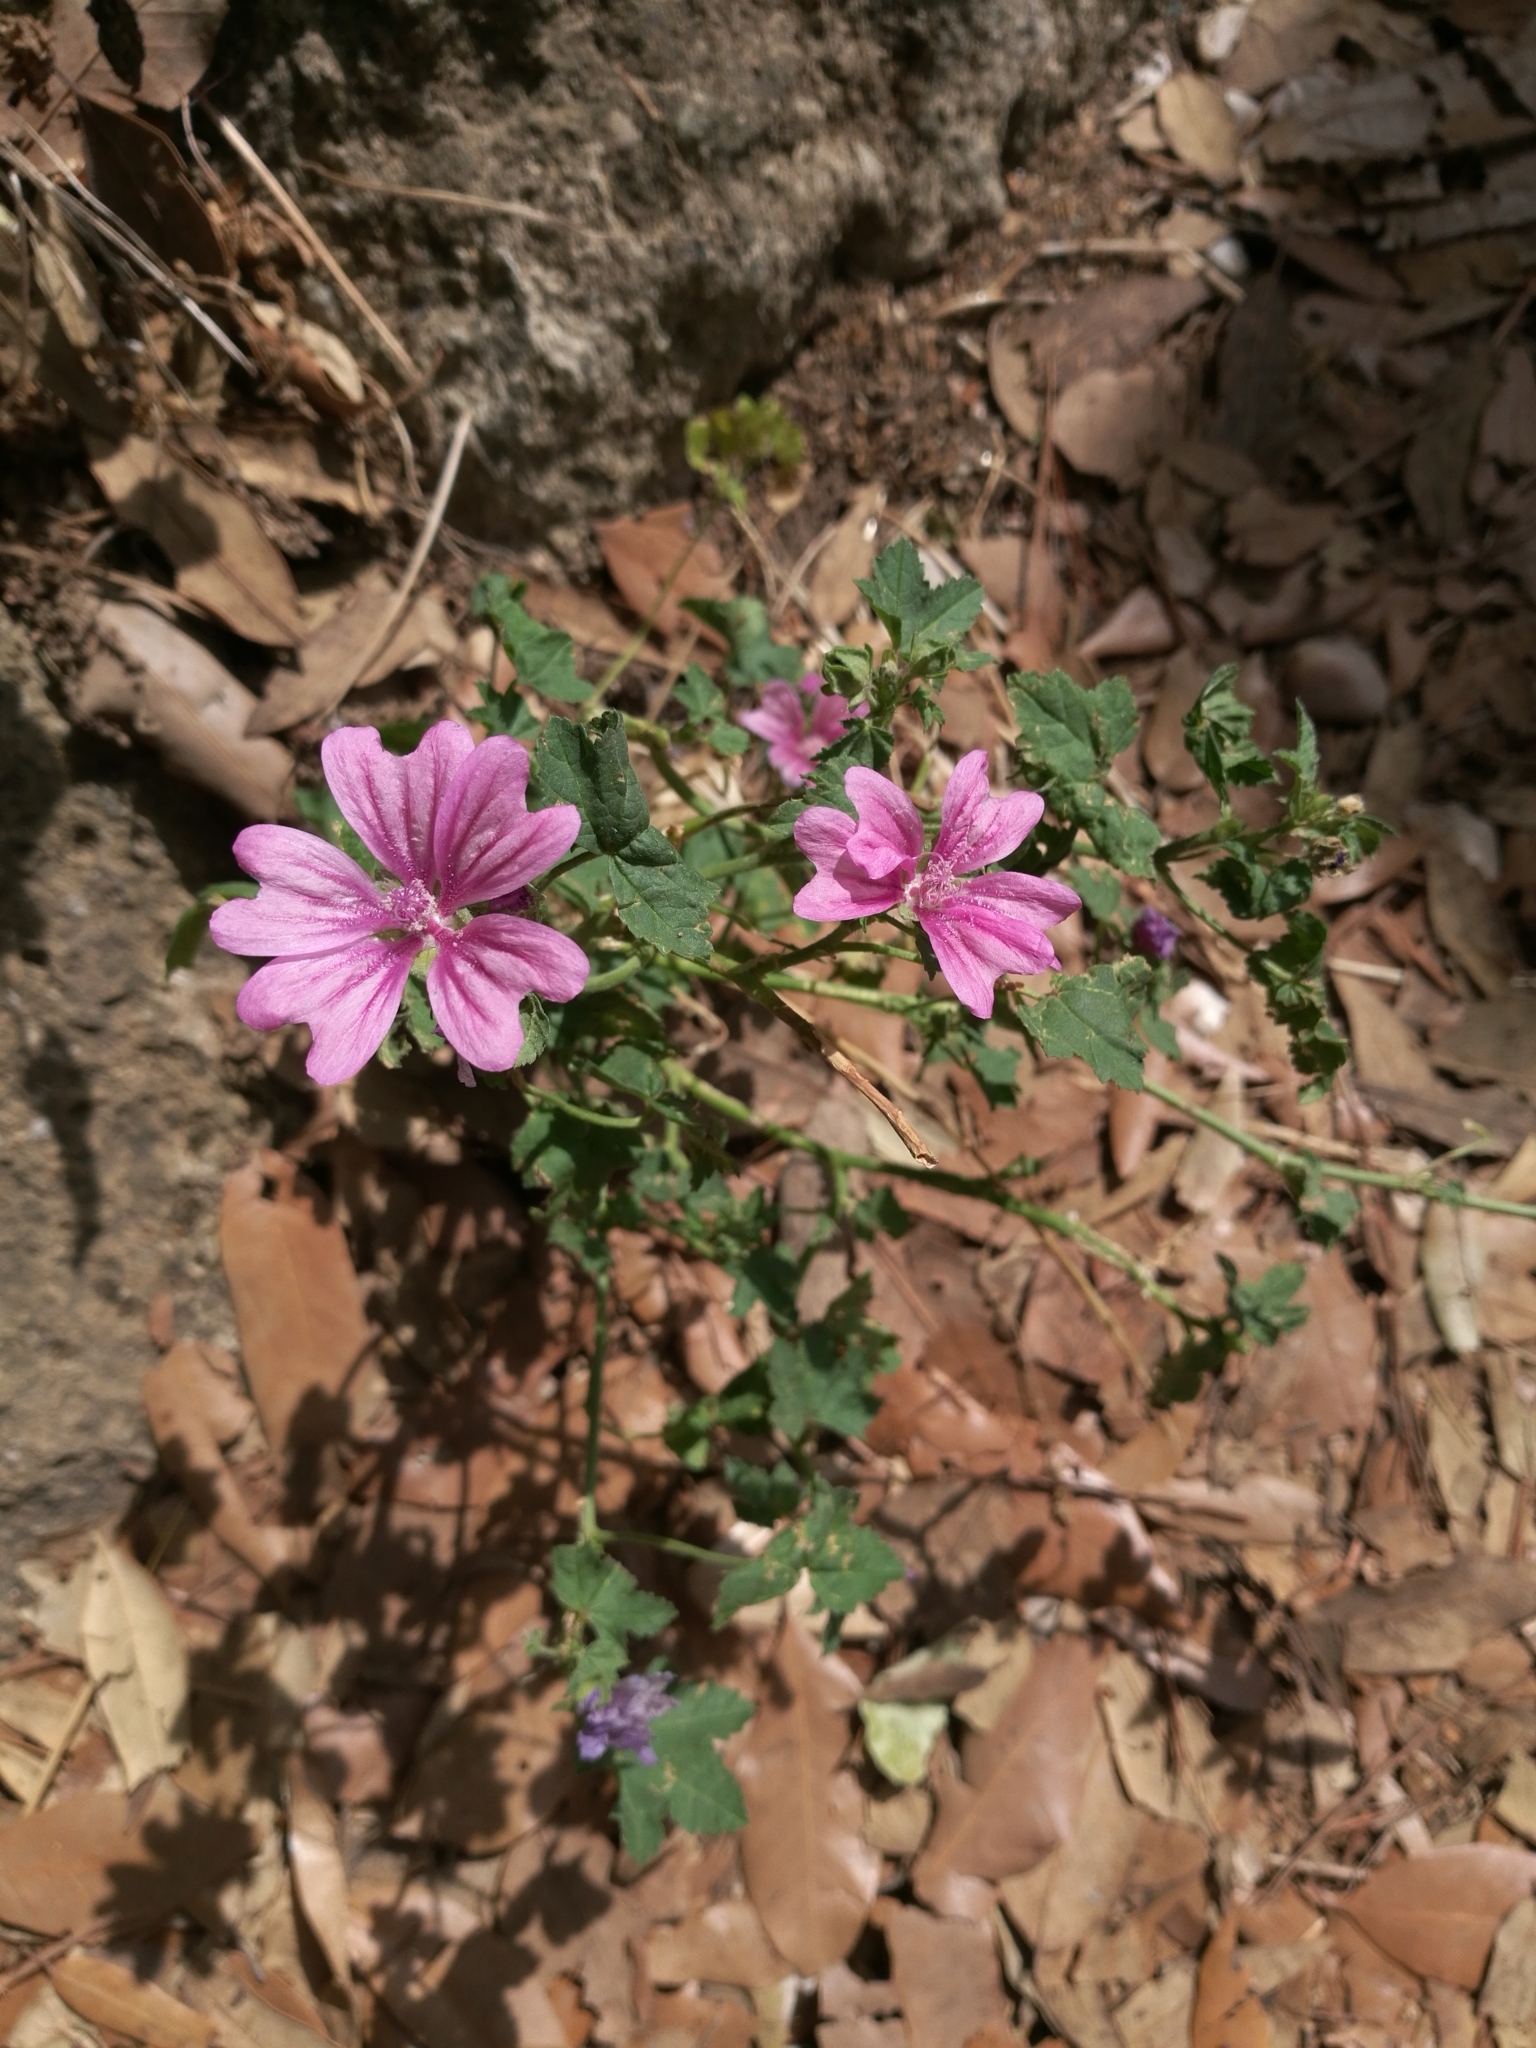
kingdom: Plantae
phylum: Tracheophyta
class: Magnoliopsida
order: Malvales
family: Malvaceae
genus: Malva
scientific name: Malva sylvestris
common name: Common mallow
